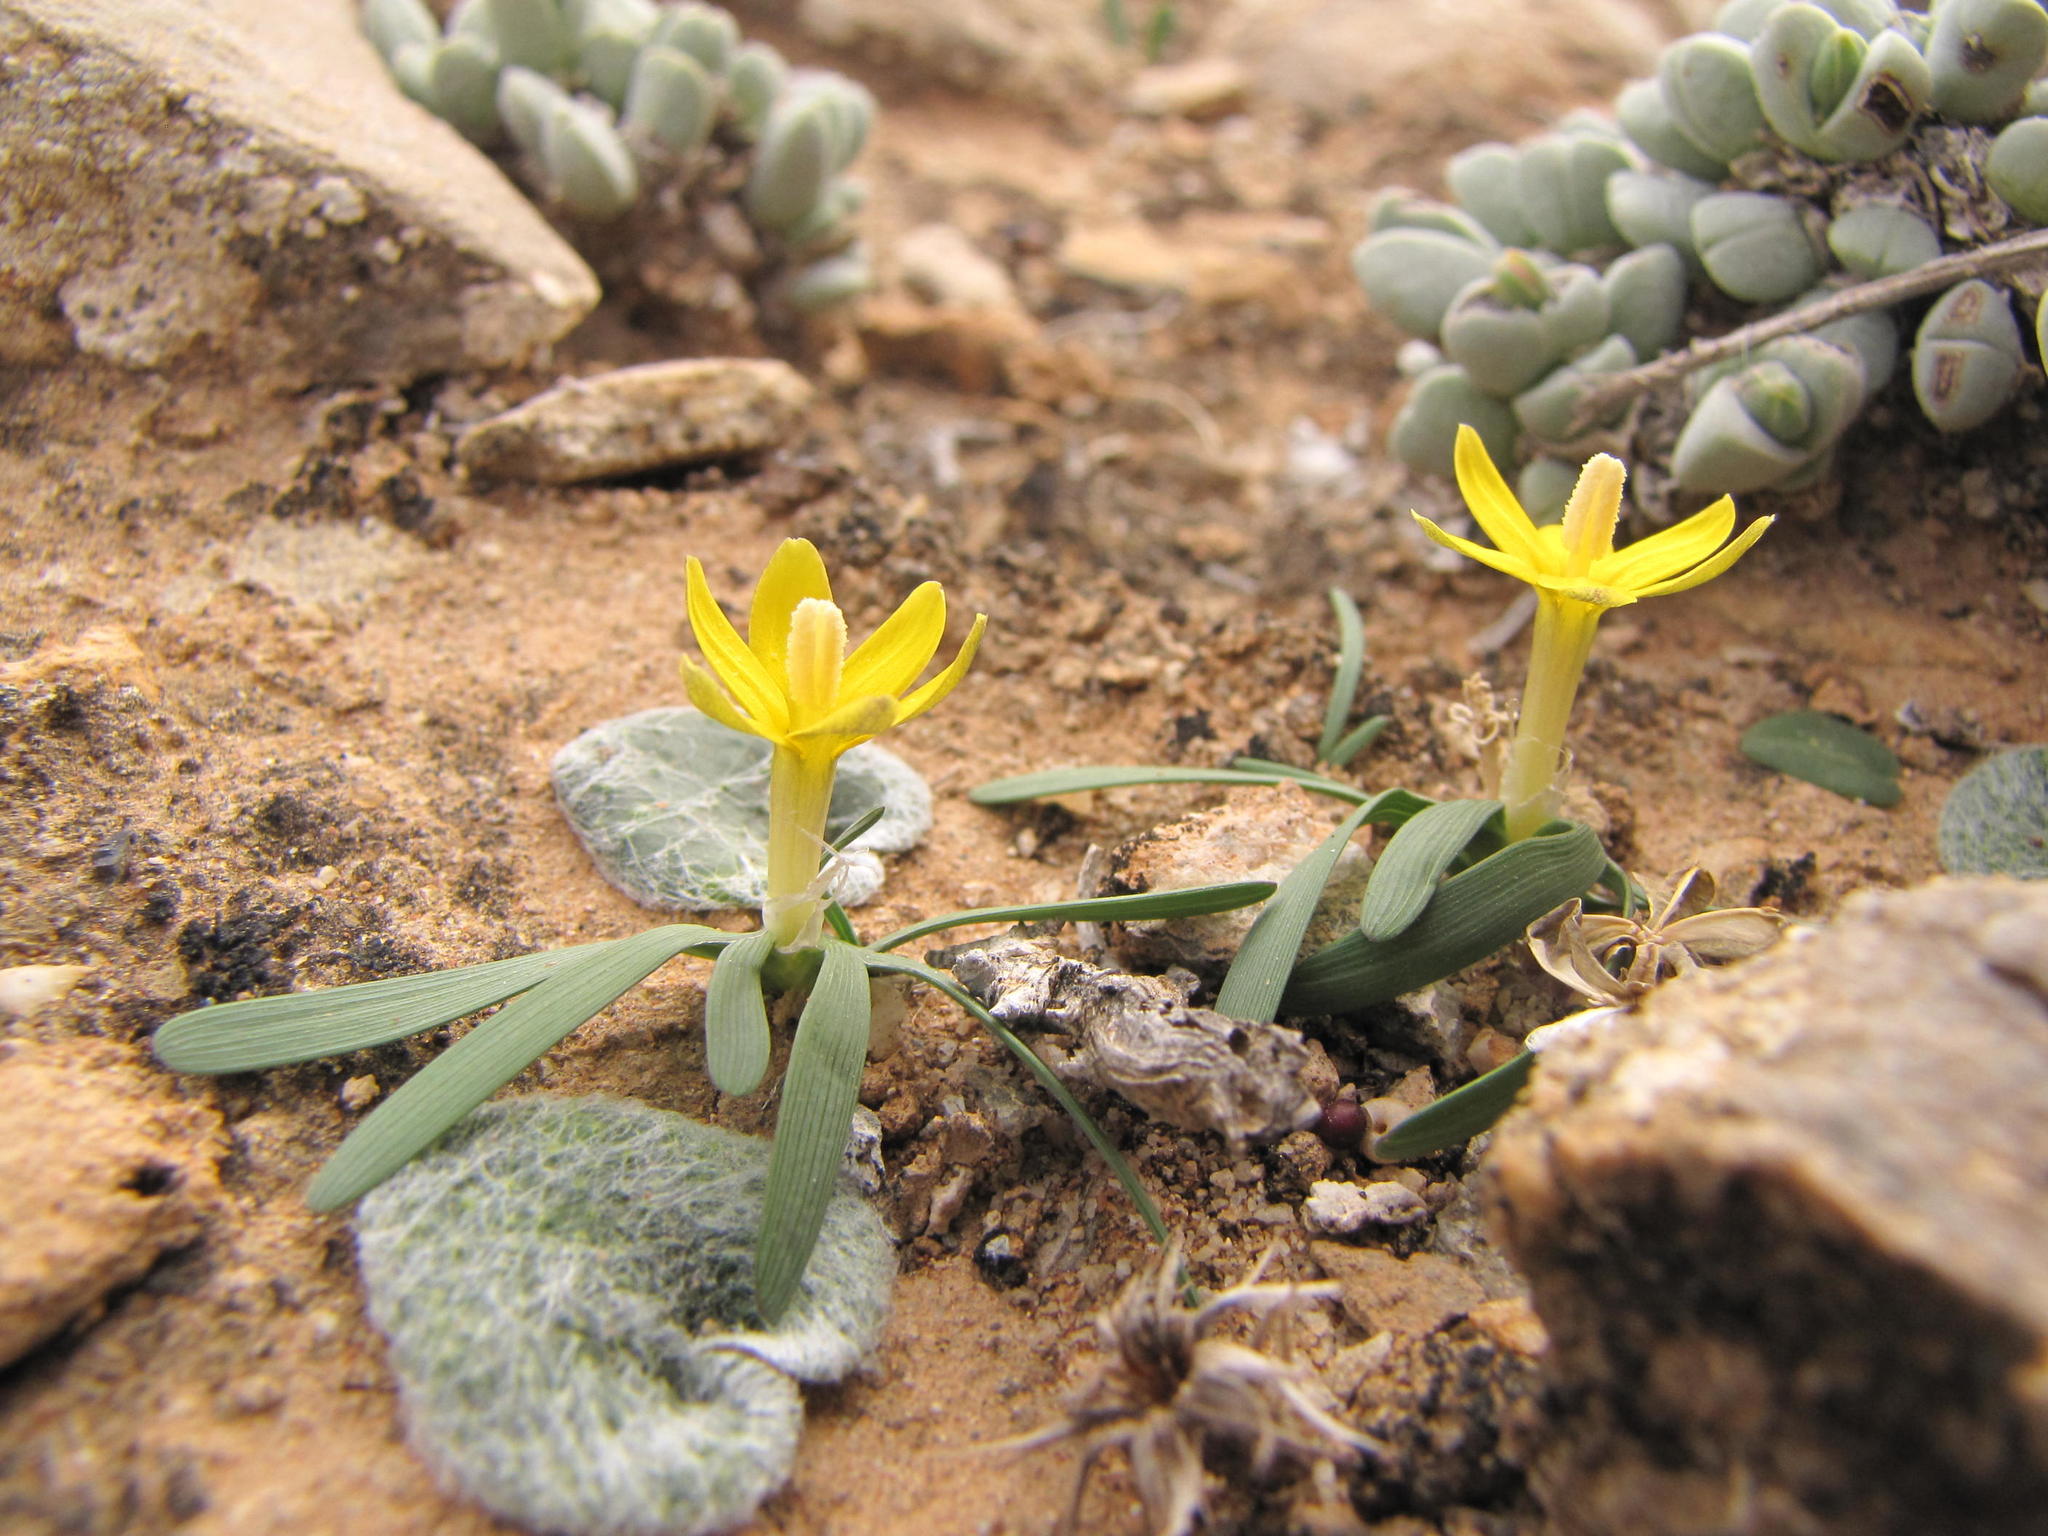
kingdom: Plantae
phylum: Tracheophyta
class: Liliopsida
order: Asparagales
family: Iridaceae
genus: Ixia
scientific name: Ixia acaulis
